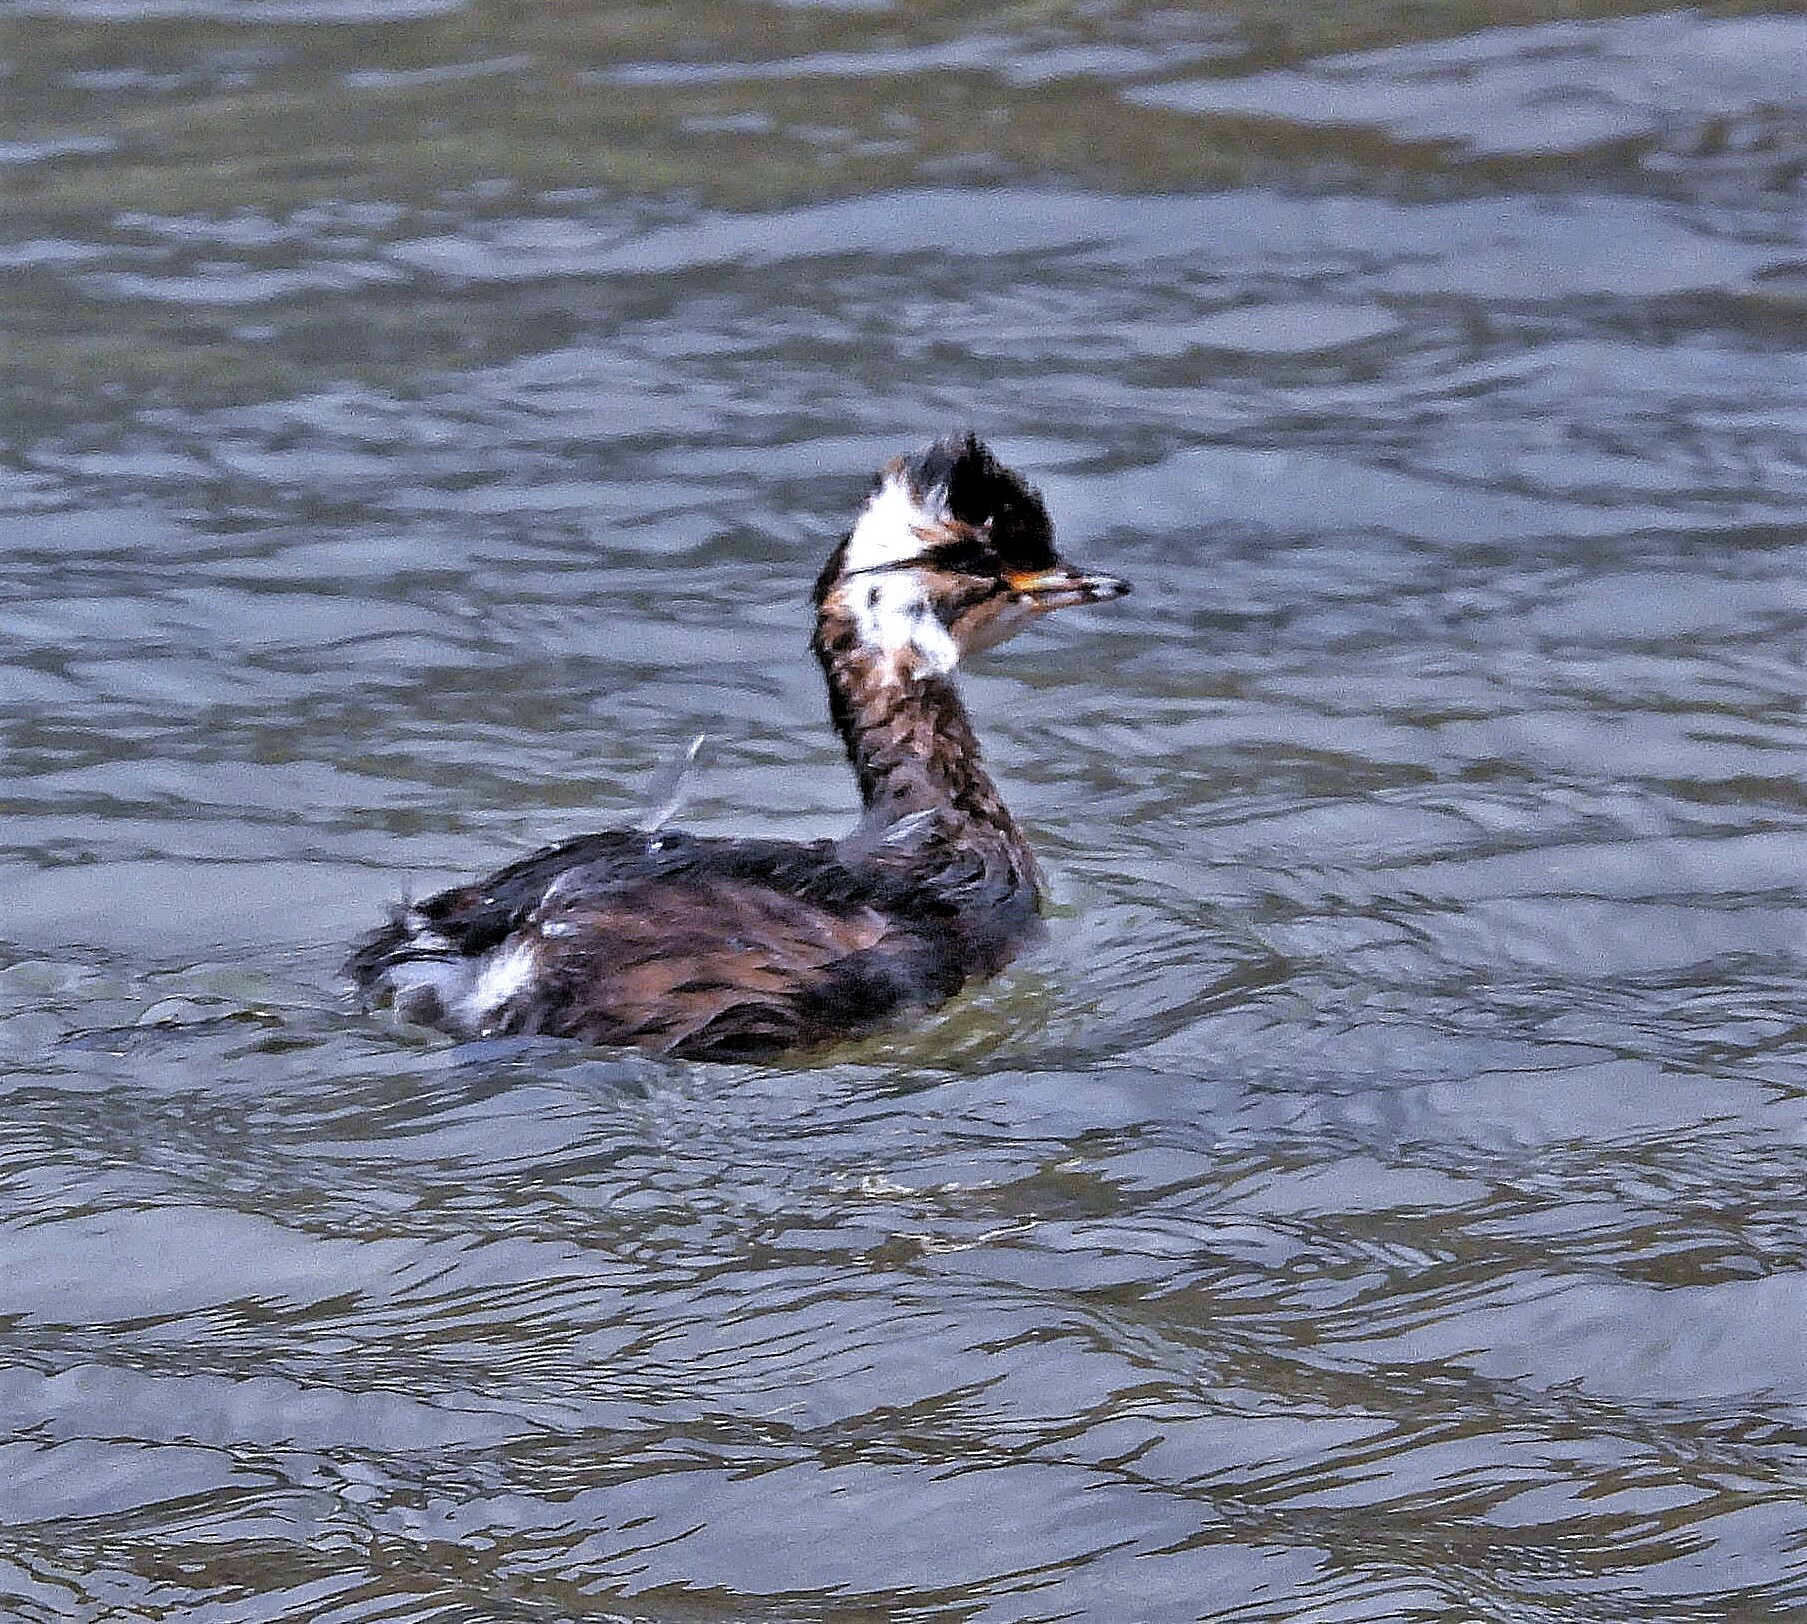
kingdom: Animalia
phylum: Chordata
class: Aves
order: Podicipediformes
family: Podicipedidae
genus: Rollandia
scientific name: Rollandia rolland
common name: White-tufted grebe
